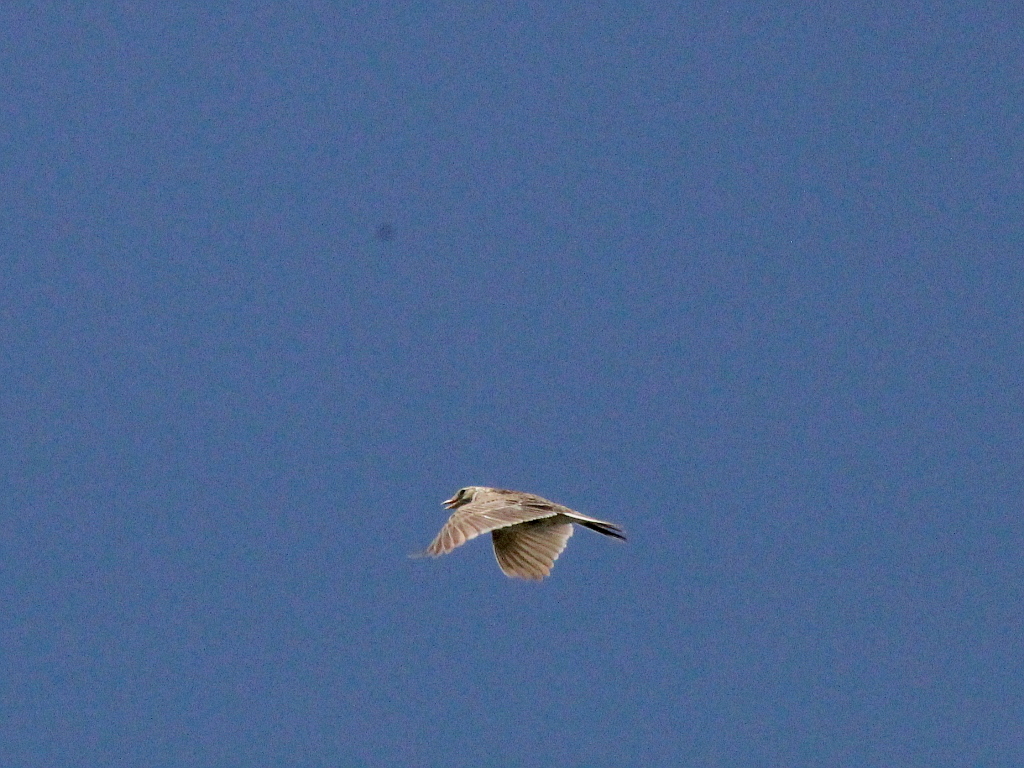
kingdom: Animalia
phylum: Chordata
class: Aves
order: Passeriformes
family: Alaudidae
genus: Alauda
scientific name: Alauda arvensis
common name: Eurasian skylark
